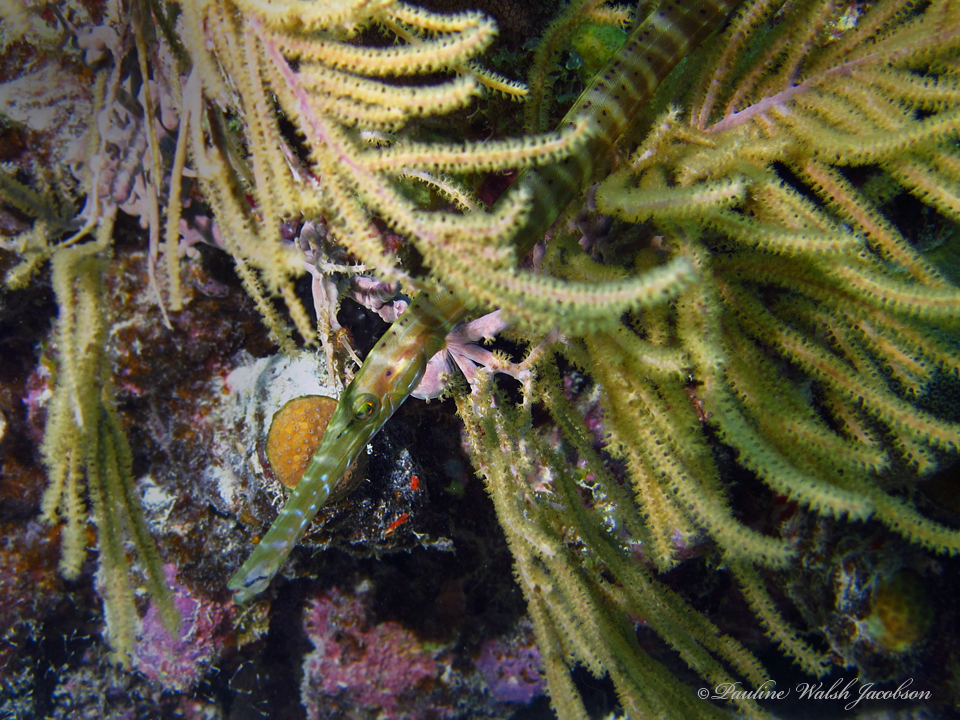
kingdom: Animalia
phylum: Chordata
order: Syngnathiformes
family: Aulostomidae
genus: Aulostomus
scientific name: Aulostomus maculatus
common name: West atlantic trumpetfish
